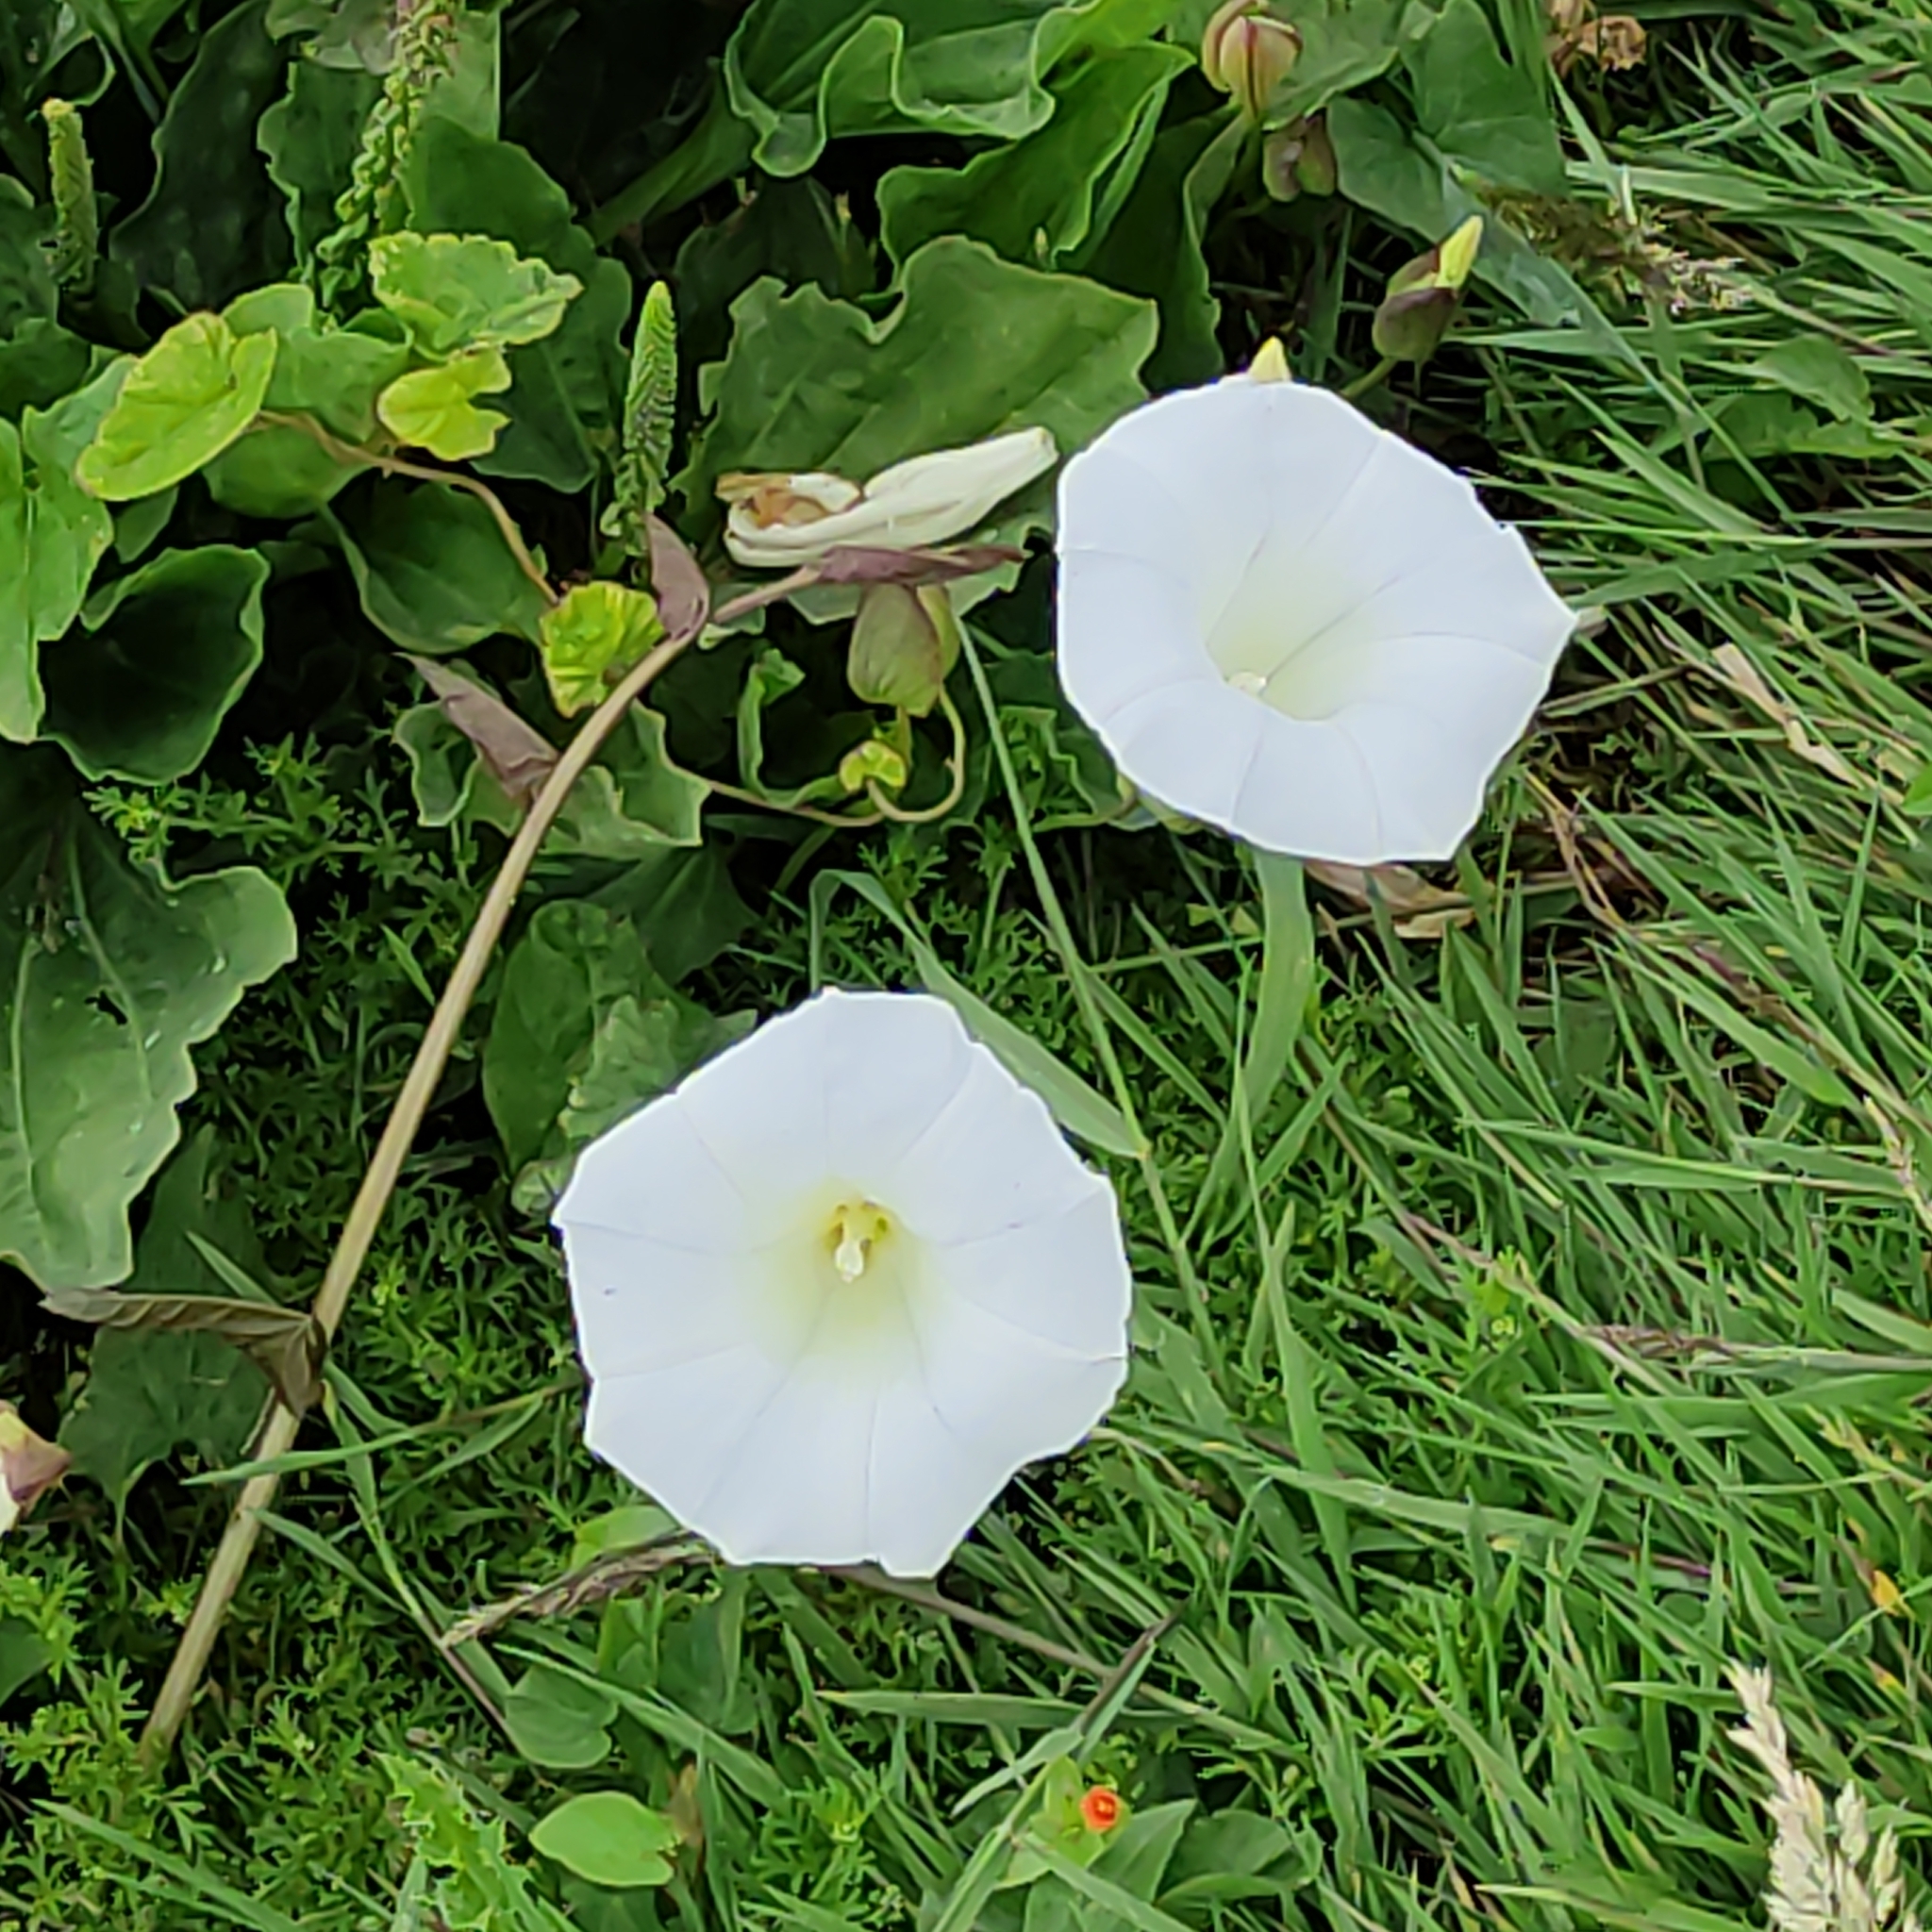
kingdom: Plantae
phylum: Tracheophyta
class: Magnoliopsida
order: Solanales
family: Convolvulaceae
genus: Calystegia
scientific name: Calystegia silvatica
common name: Large bindweed
